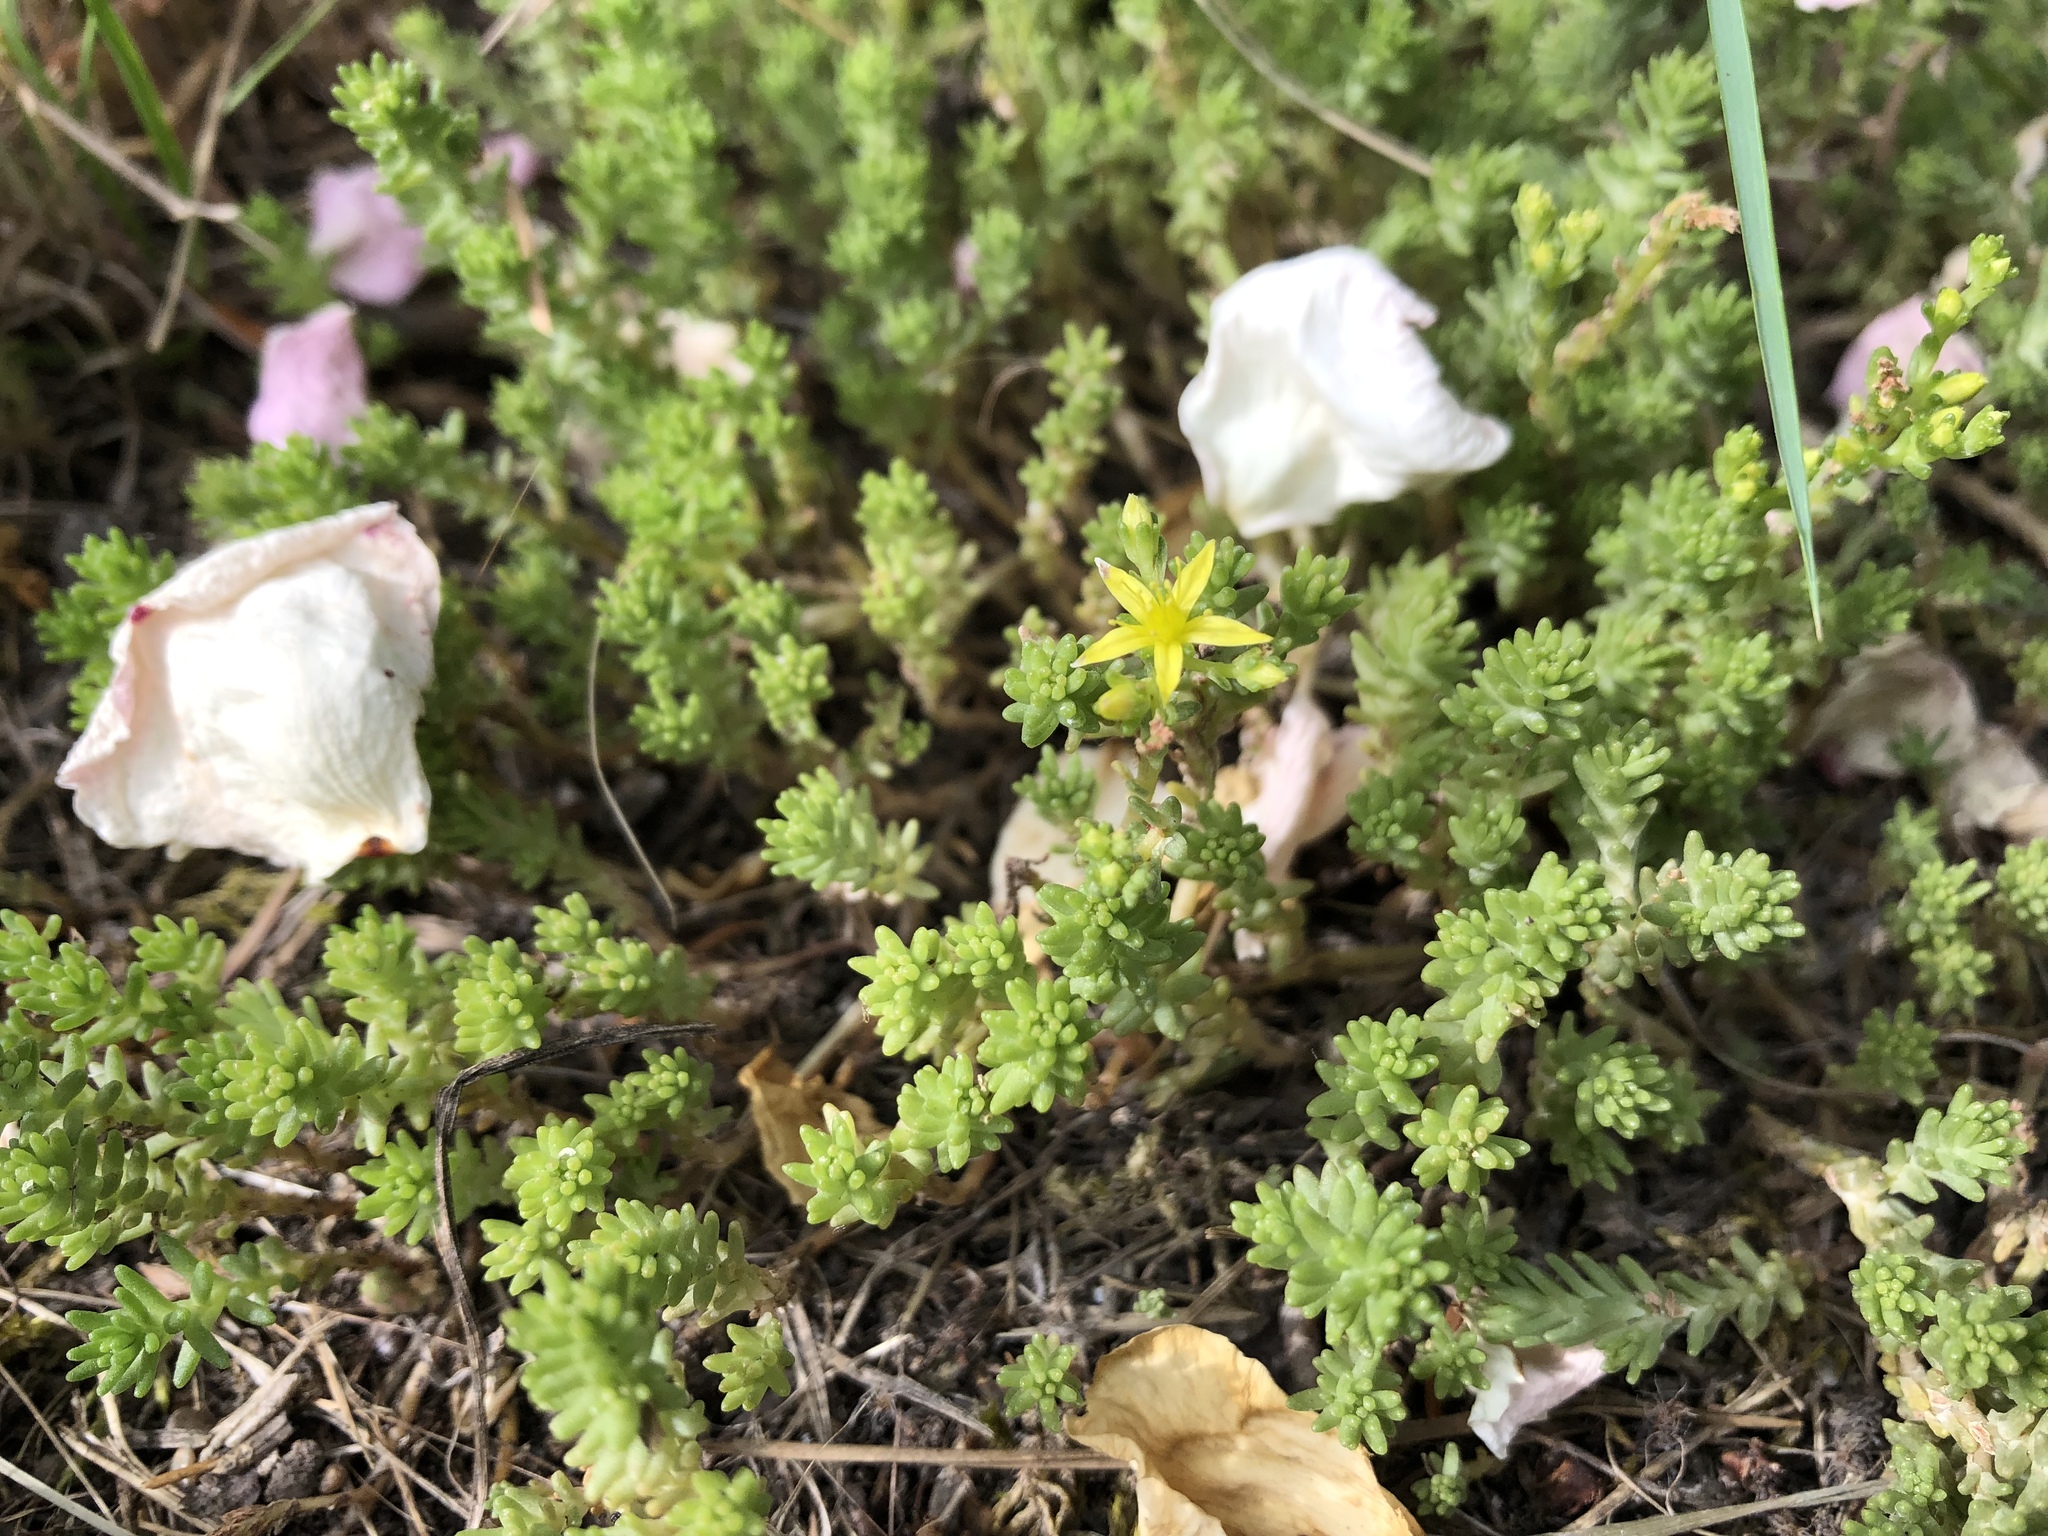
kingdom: Plantae
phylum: Tracheophyta
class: Magnoliopsida
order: Saxifragales
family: Crassulaceae
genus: Sedum
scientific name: Sedum sexangulare
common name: Tasteless stonecrop
